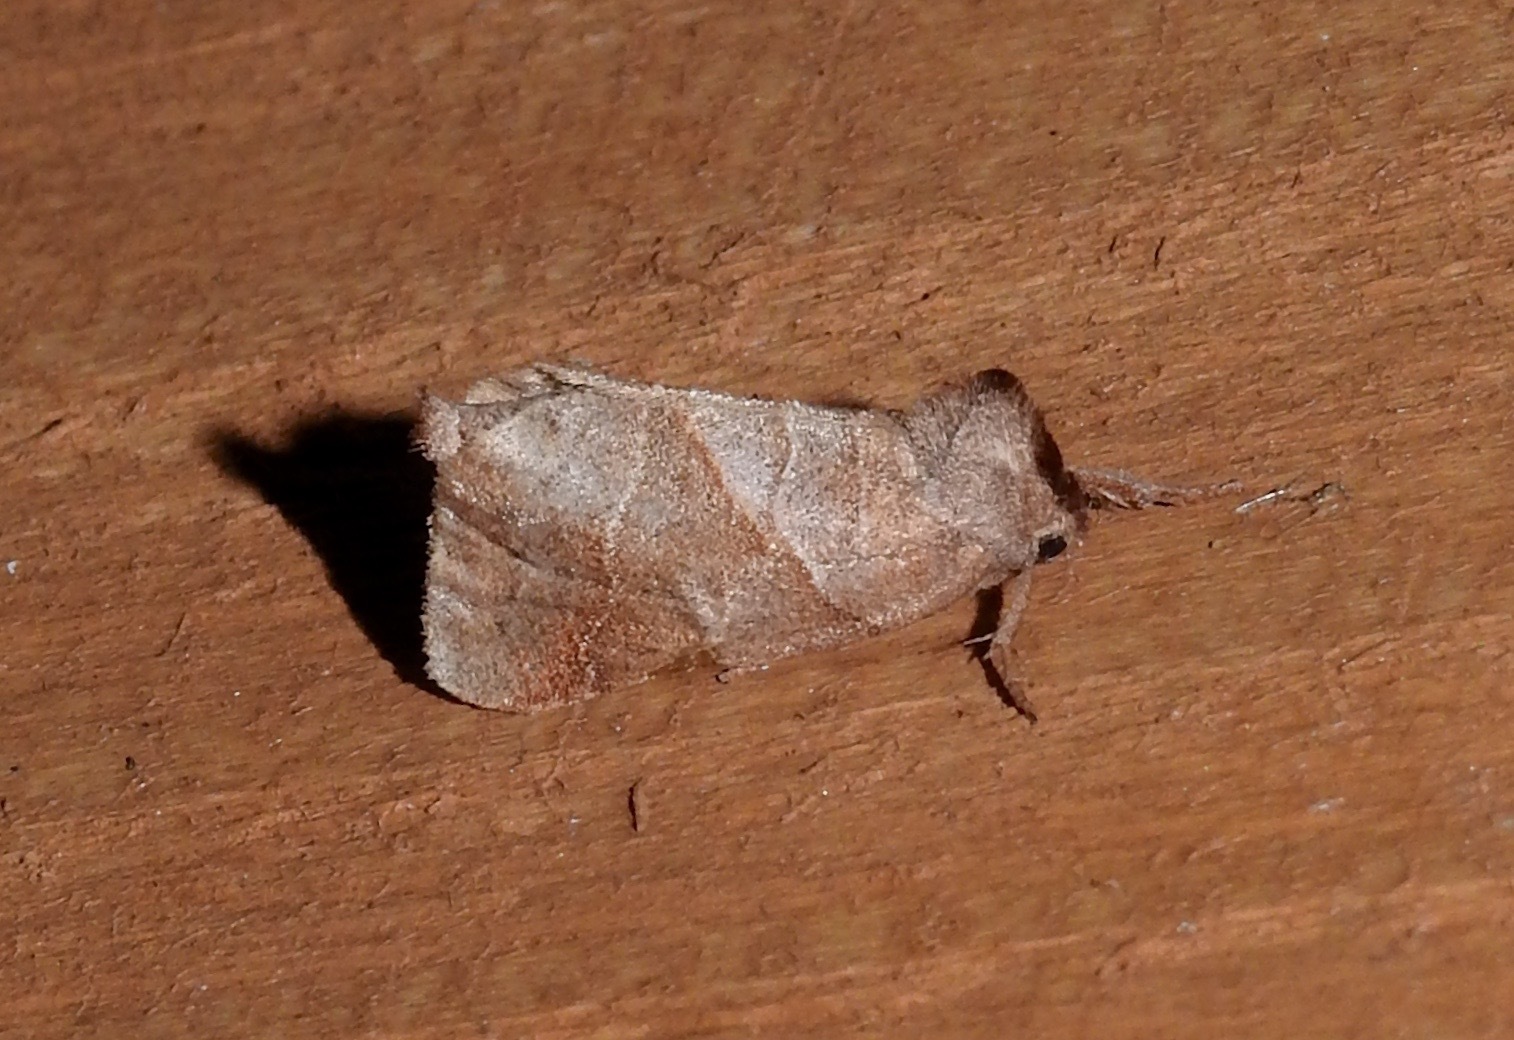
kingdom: Animalia
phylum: Arthropoda
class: Insecta
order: Lepidoptera
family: Notodontidae
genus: Clostera
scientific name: Clostera inclusa
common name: Angle-lined prominent
